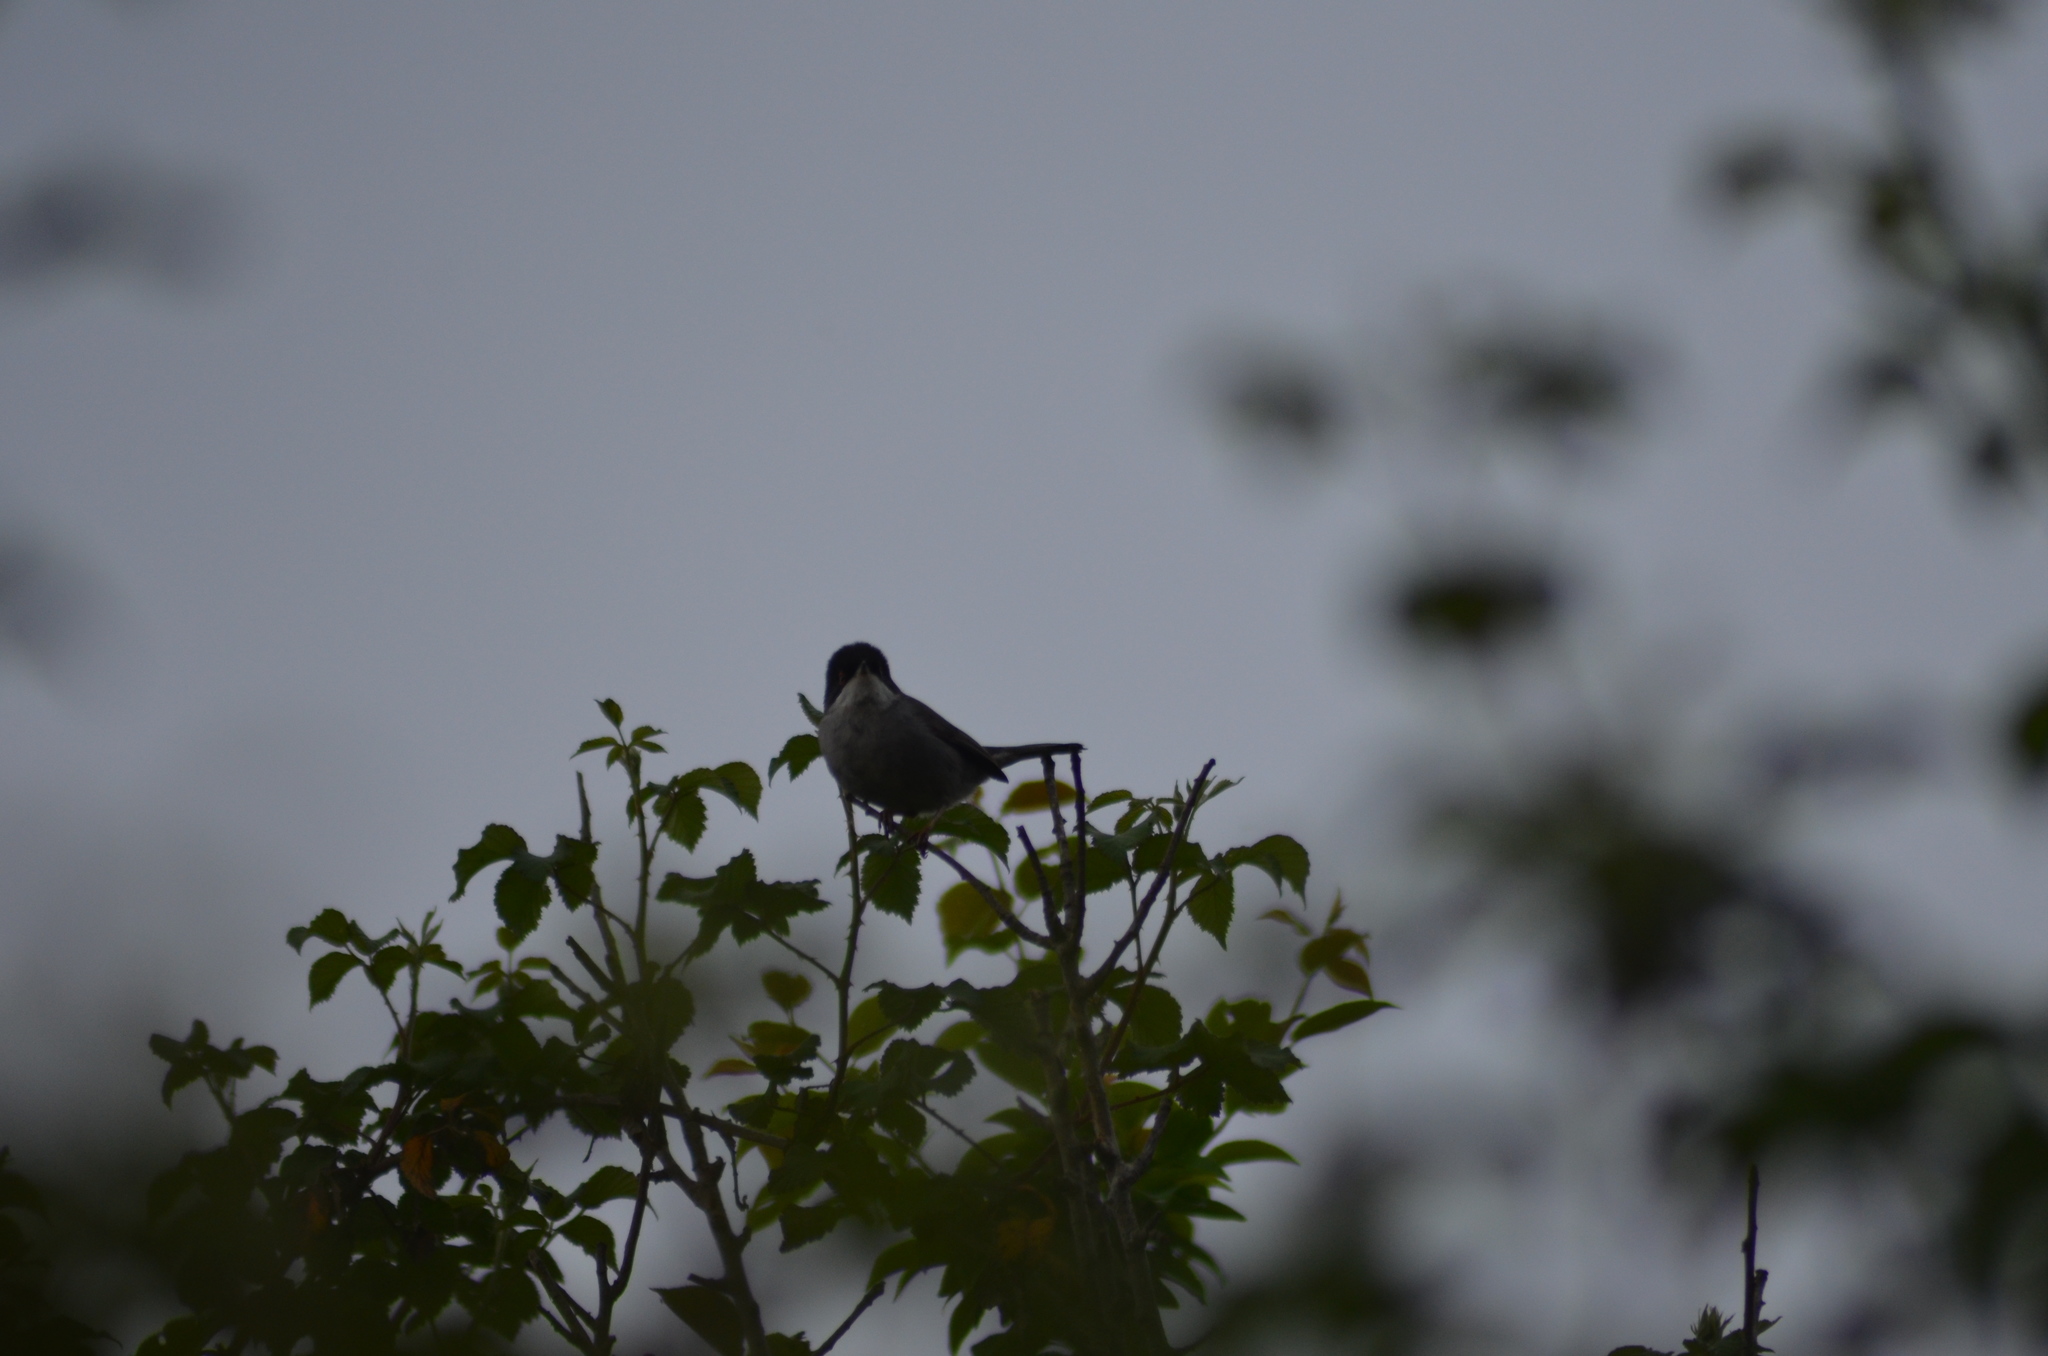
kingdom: Animalia
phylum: Chordata
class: Aves
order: Passeriformes
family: Sylviidae
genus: Curruca
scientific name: Curruca melanocephala
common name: Sardinian warbler
